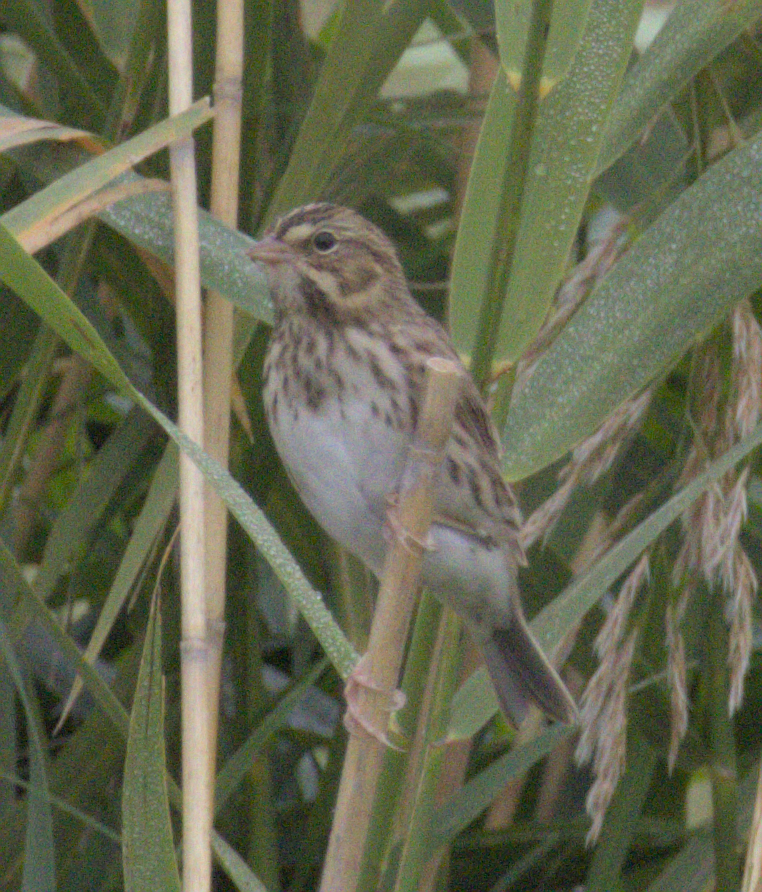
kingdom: Animalia
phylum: Chordata
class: Aves
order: Passeriformes
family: Passerellidae
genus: Passerculus
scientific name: Passerculus sandwichensis
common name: Savannah sparrow
